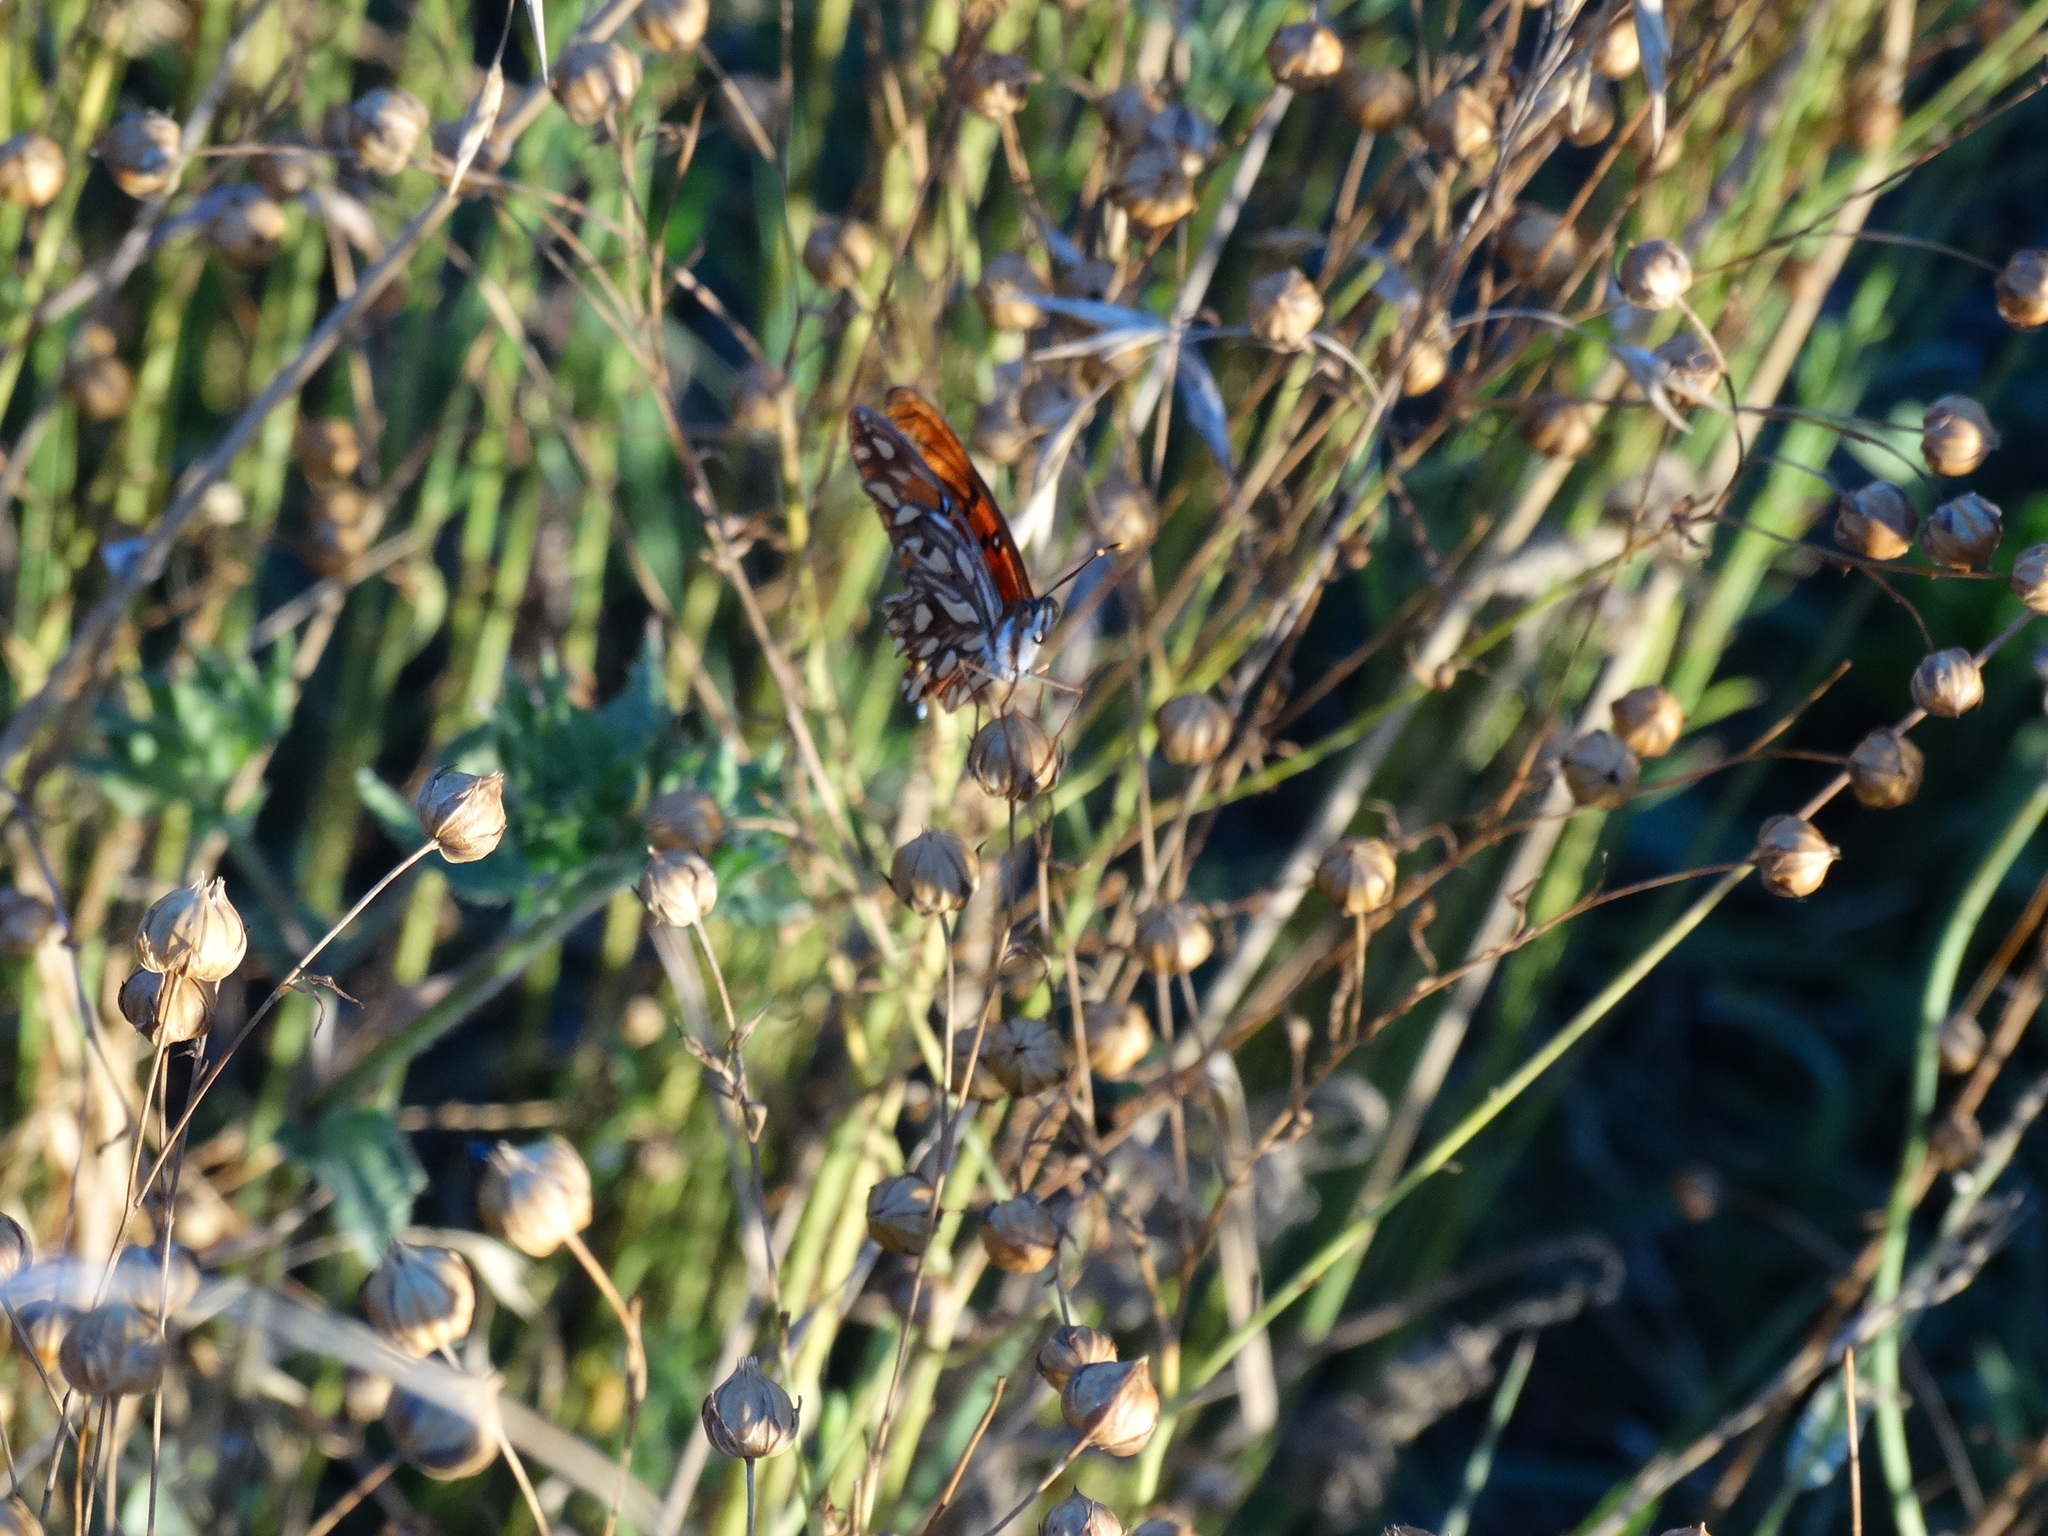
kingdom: Animalia
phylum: Arthropoda
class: Insecta
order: Lepidoptera
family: Nymphalidae
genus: Dione
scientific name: Dione vanillae
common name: Gulf fritillary
